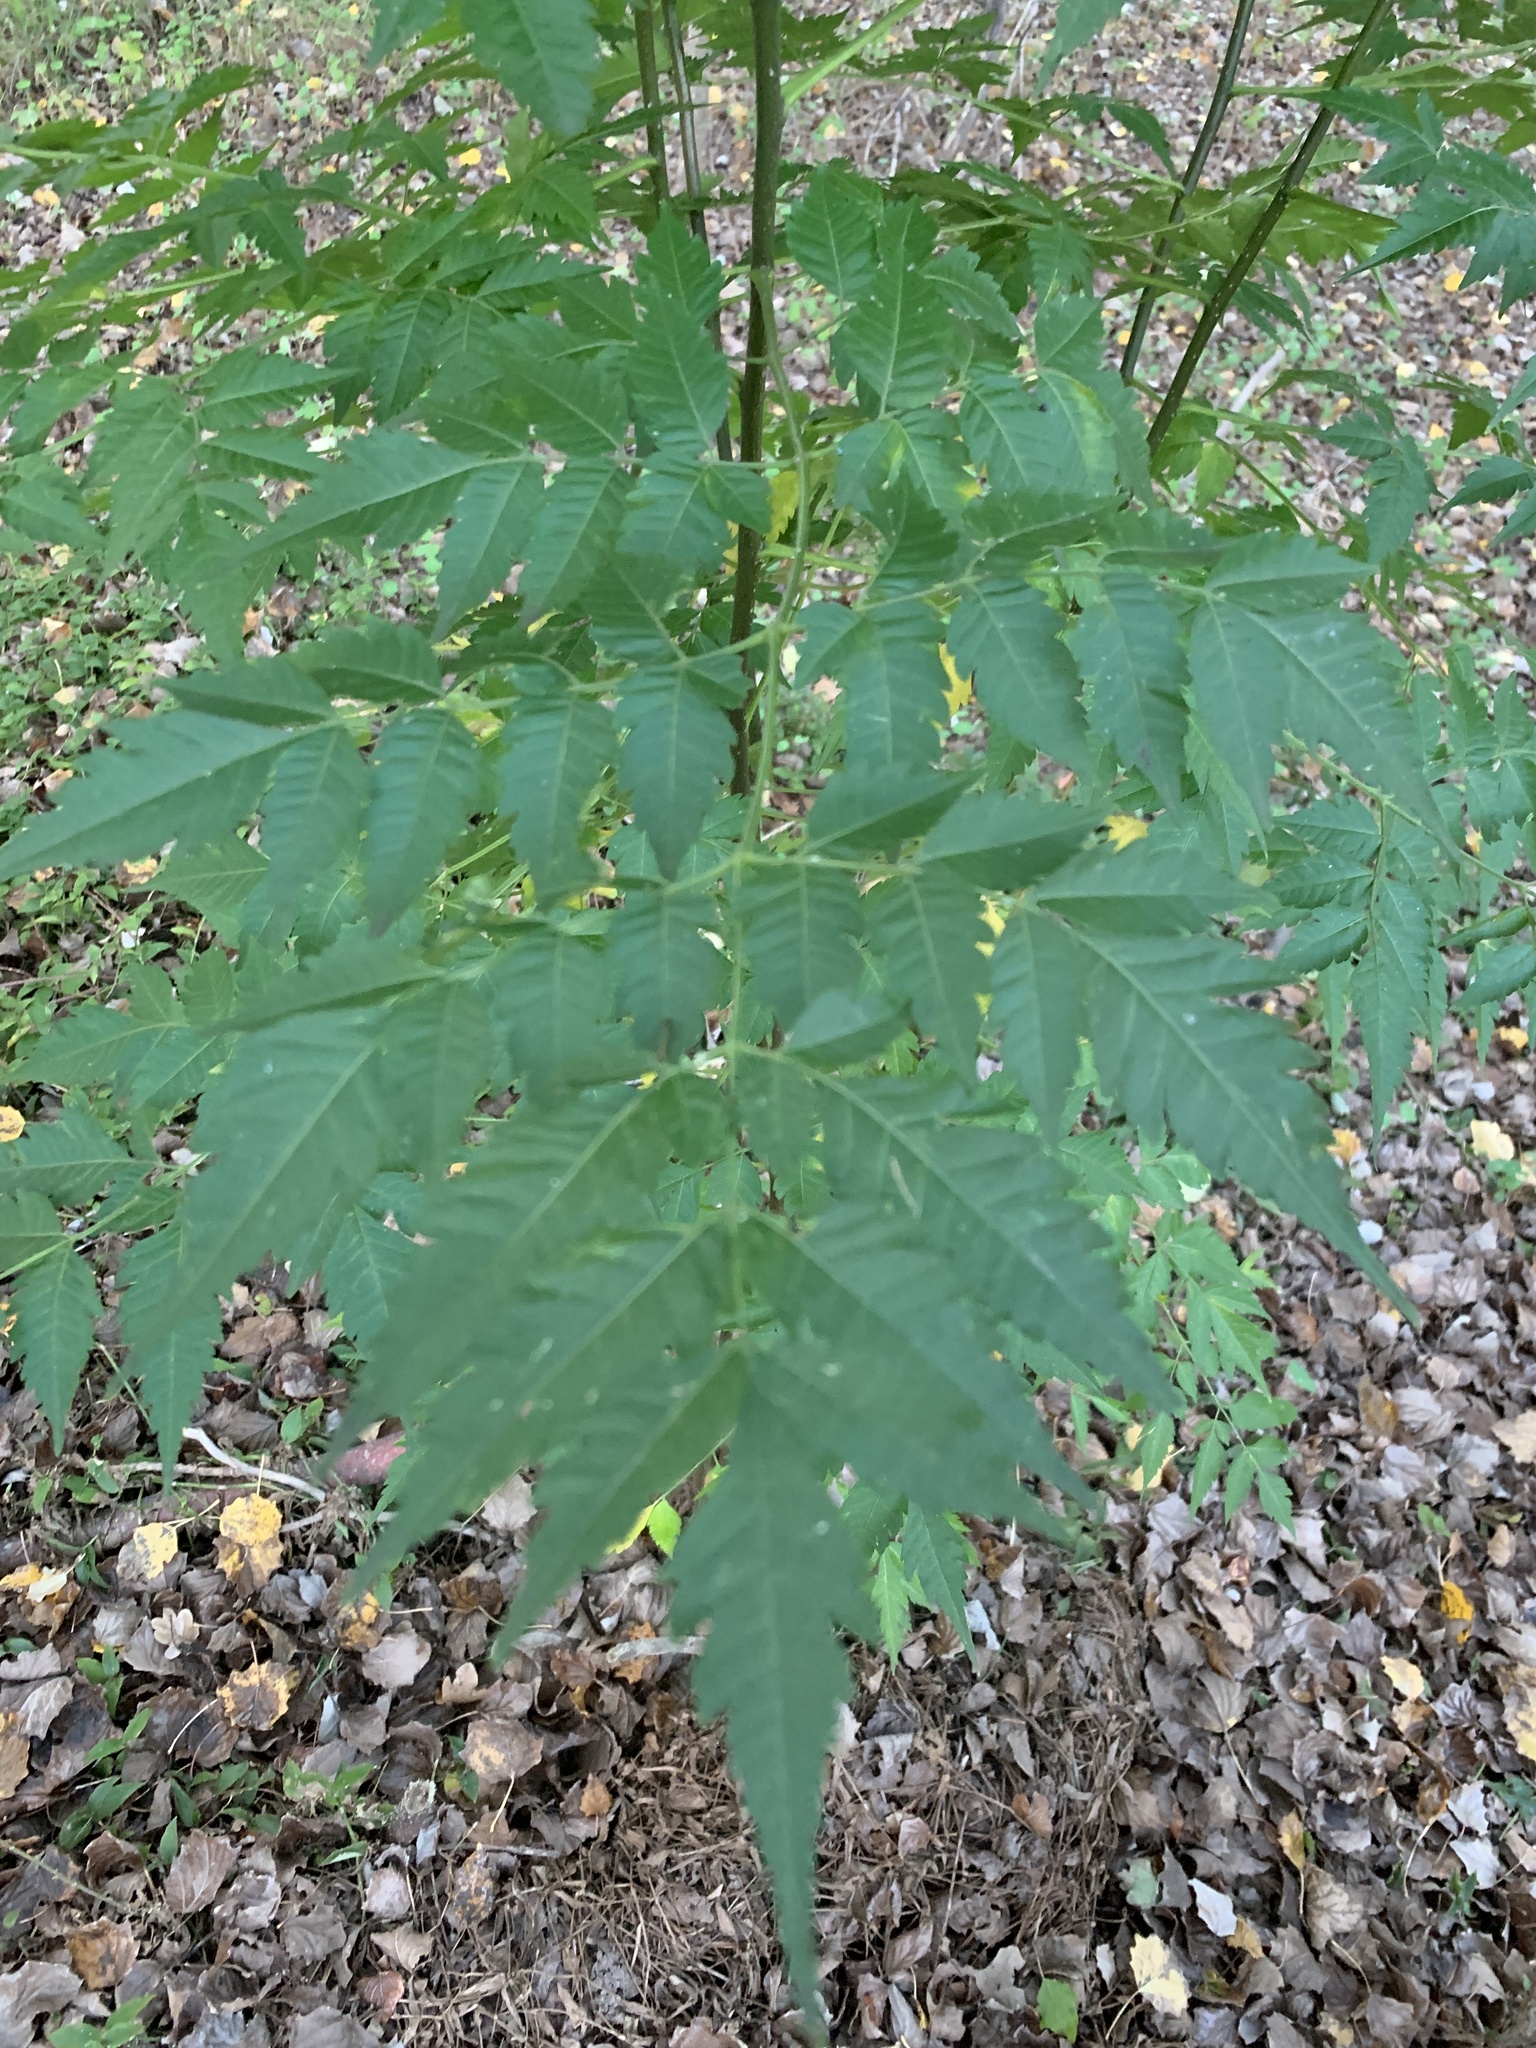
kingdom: Plantae
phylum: Tracheophyta
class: Magnoliopsida
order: Sapindales
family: Meliaceae
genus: Melia
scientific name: Melia azedarach
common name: Chinaberrytree
